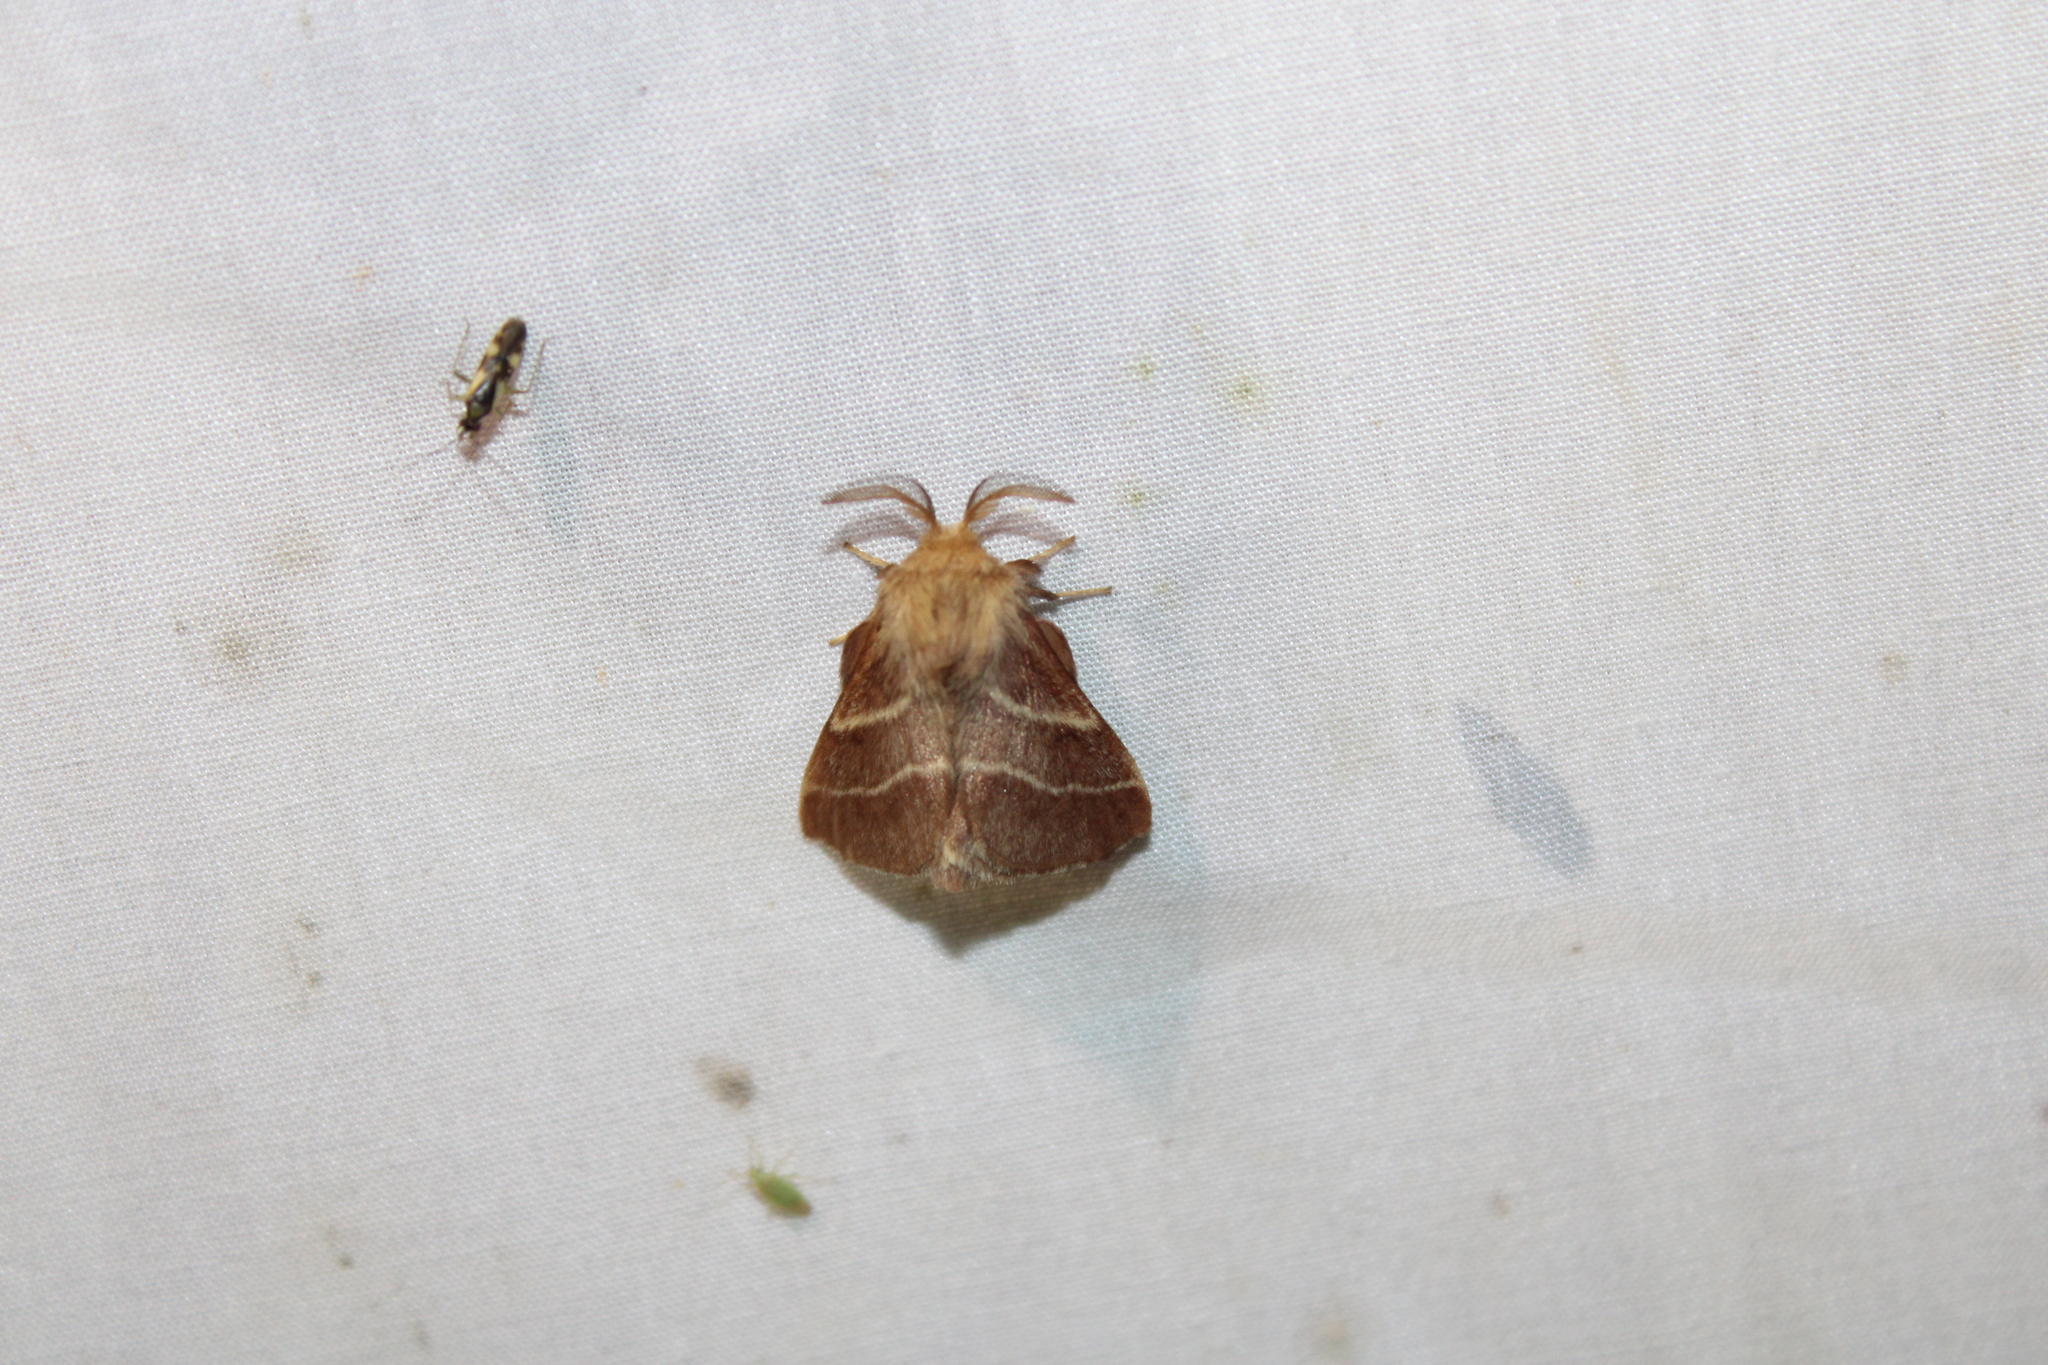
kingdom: Animalia
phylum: Arthropoda
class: Insecta
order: Lepidoptera
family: Lasiocampidae
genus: Malacosoma
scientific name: Malacosoma americana
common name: Eastern tent caterpillar moth
